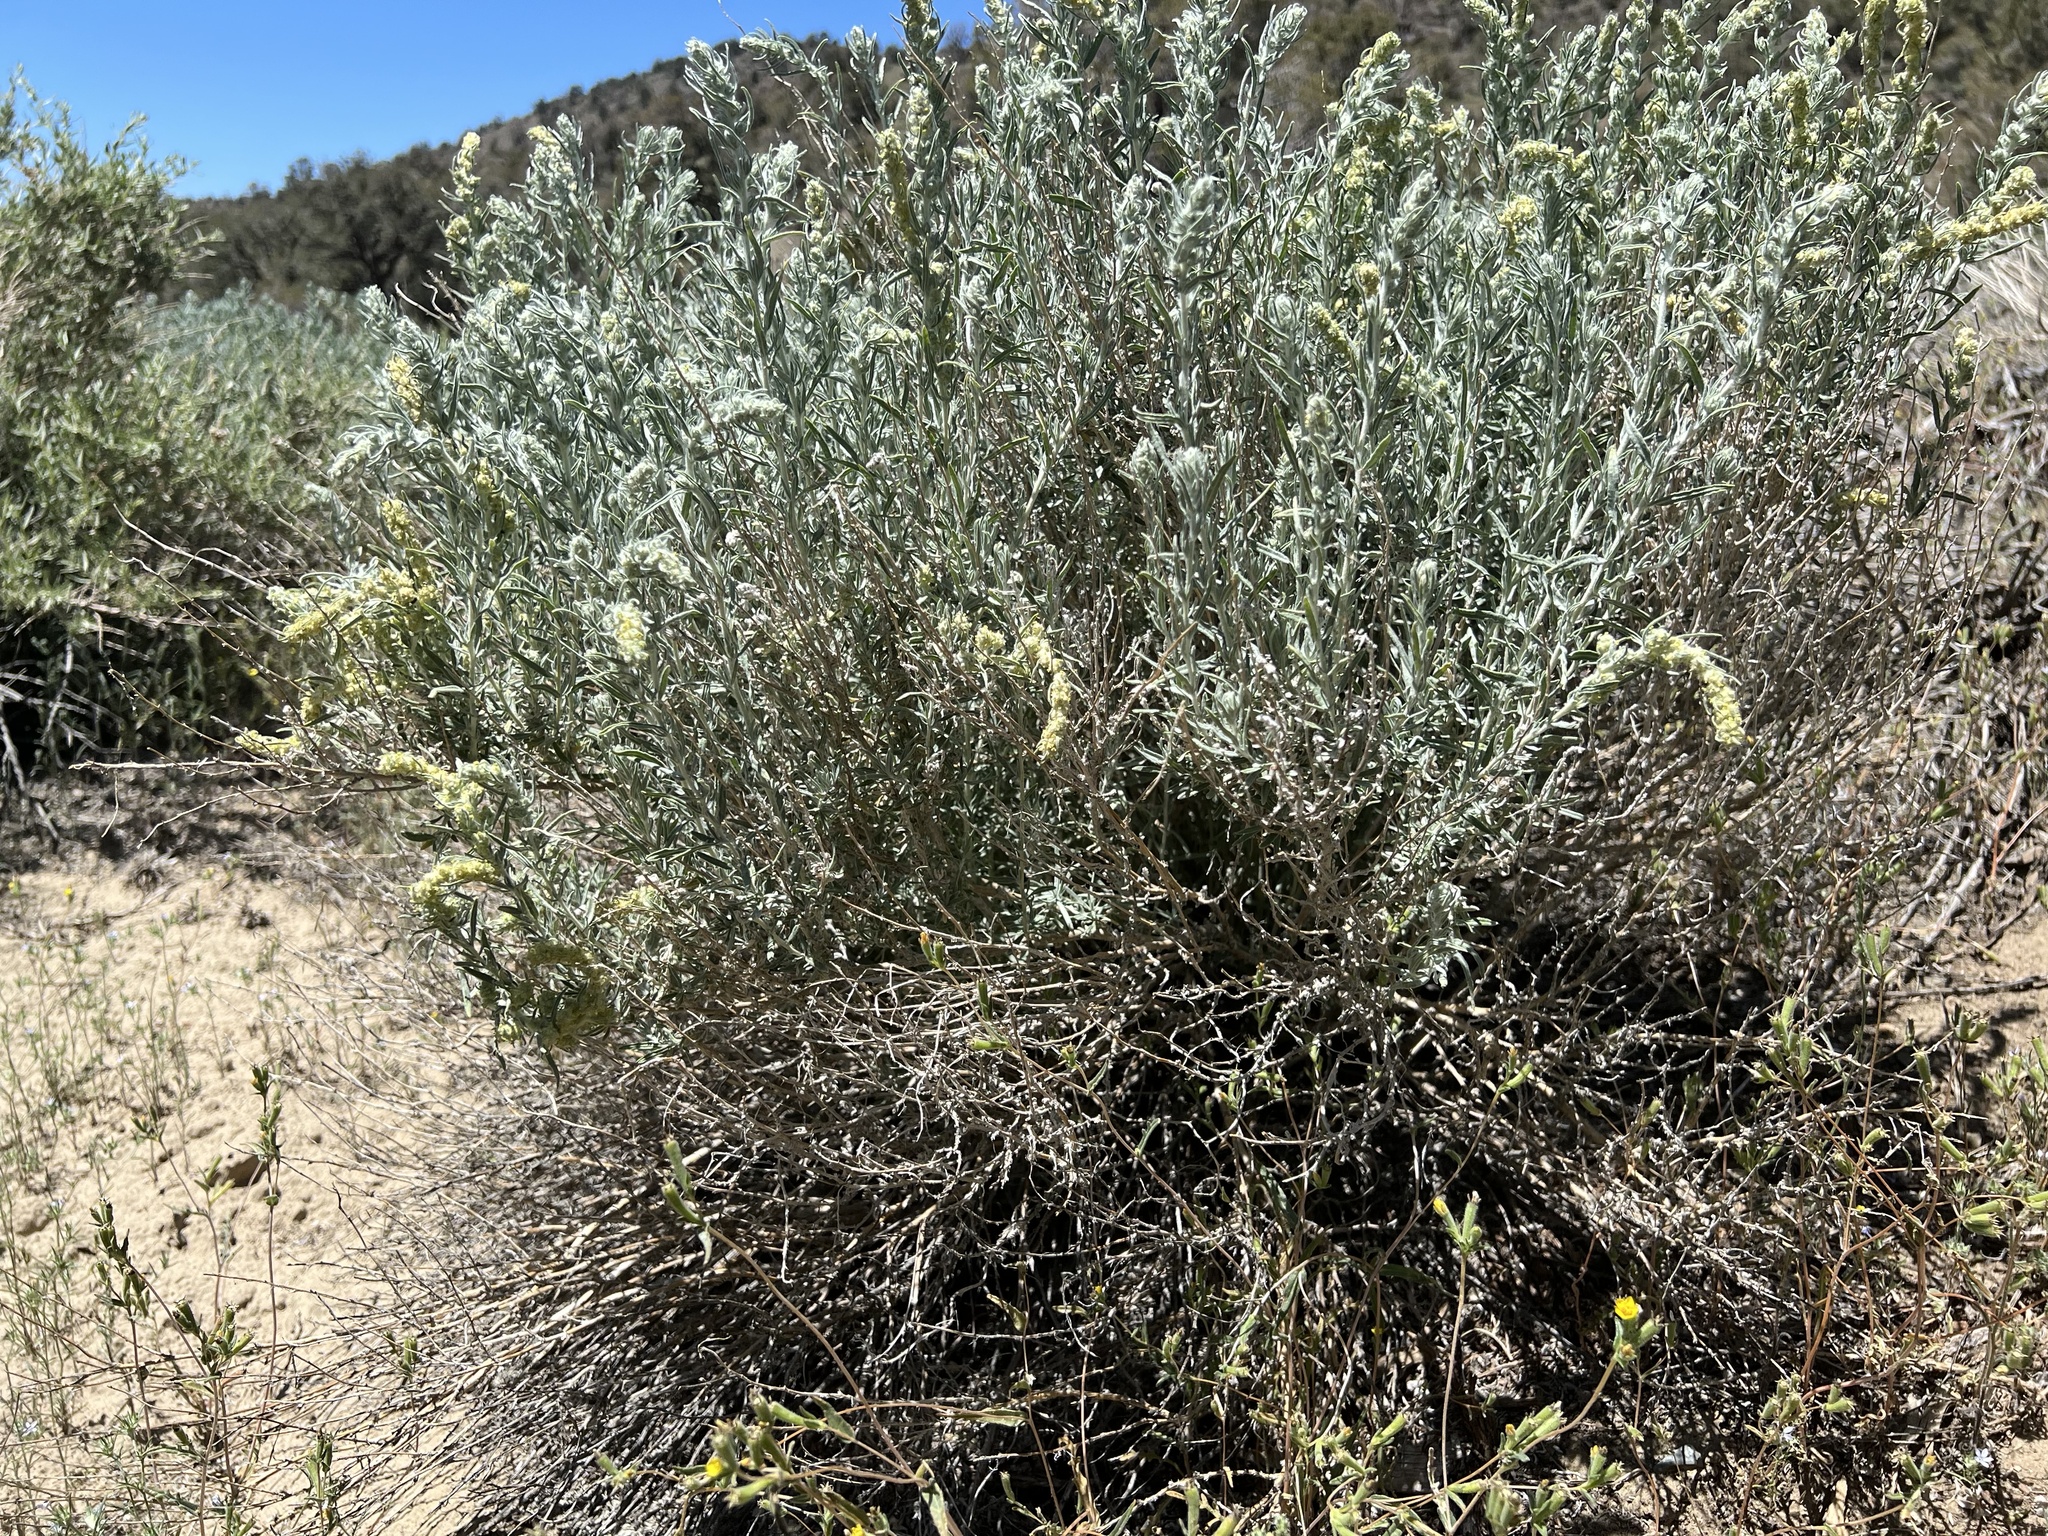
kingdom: Plantae
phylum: Tracheophyta
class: Magnoliopsida
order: Caryophyllales
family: Amaranthaceae
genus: Krascheninnikovia
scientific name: Krascheninnikovia lanata
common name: Winterfat
